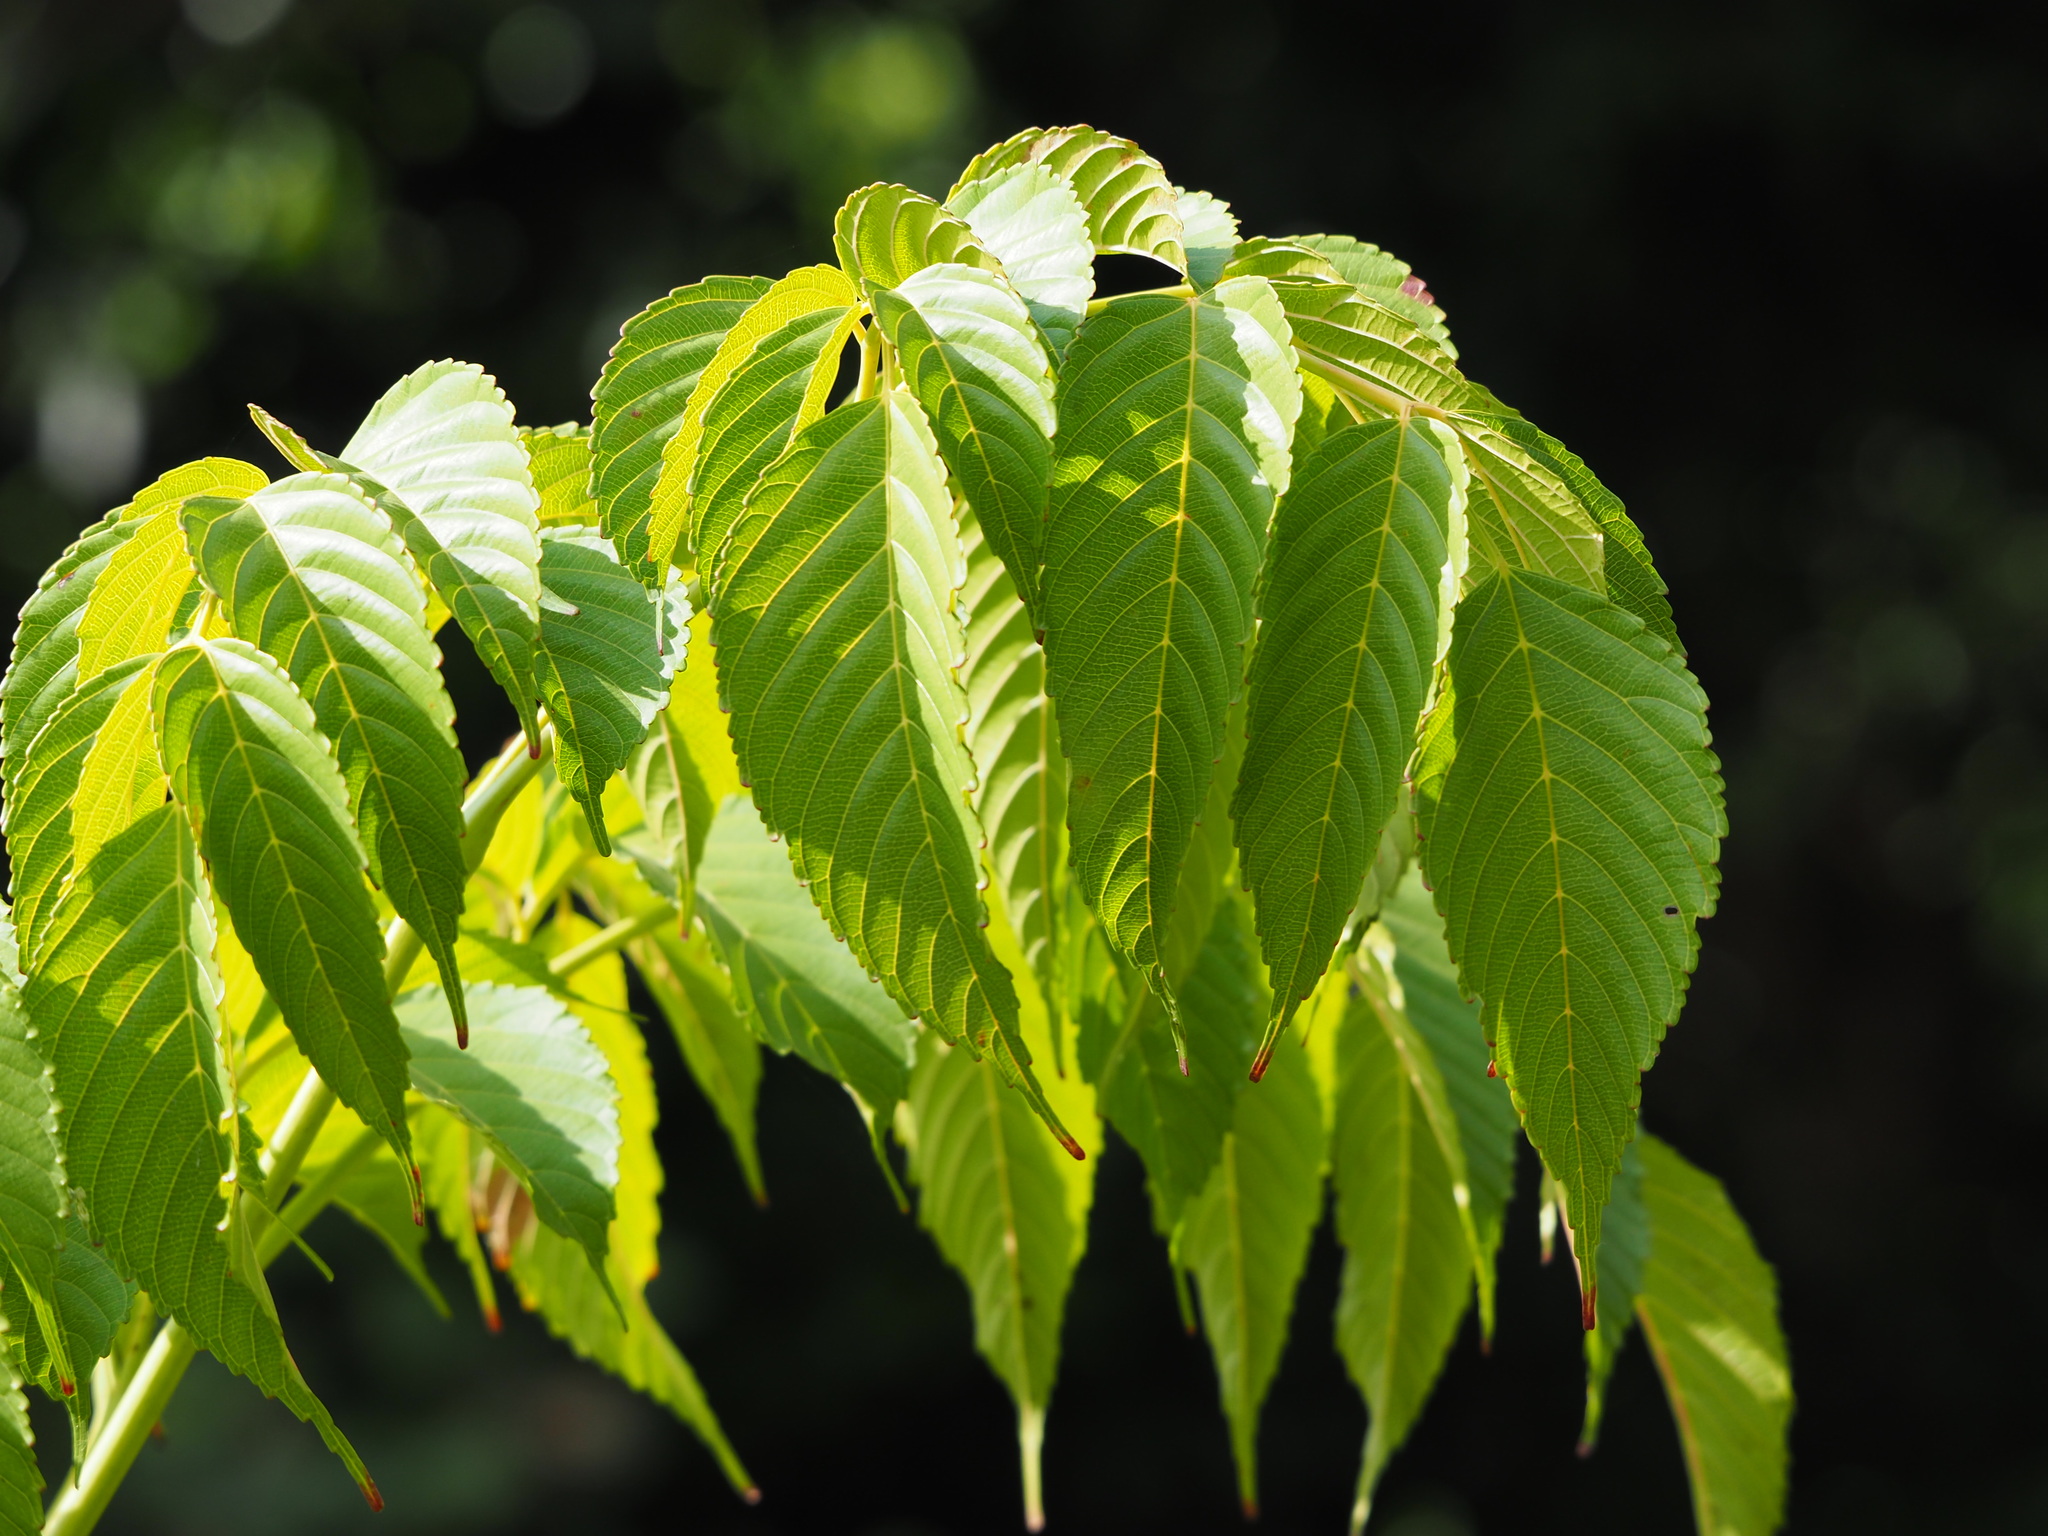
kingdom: Plantae
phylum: Tracheophyta
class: Magnoliopsida
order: Vitales
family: Vitaceae
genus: Leea
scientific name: Leea guineensis
